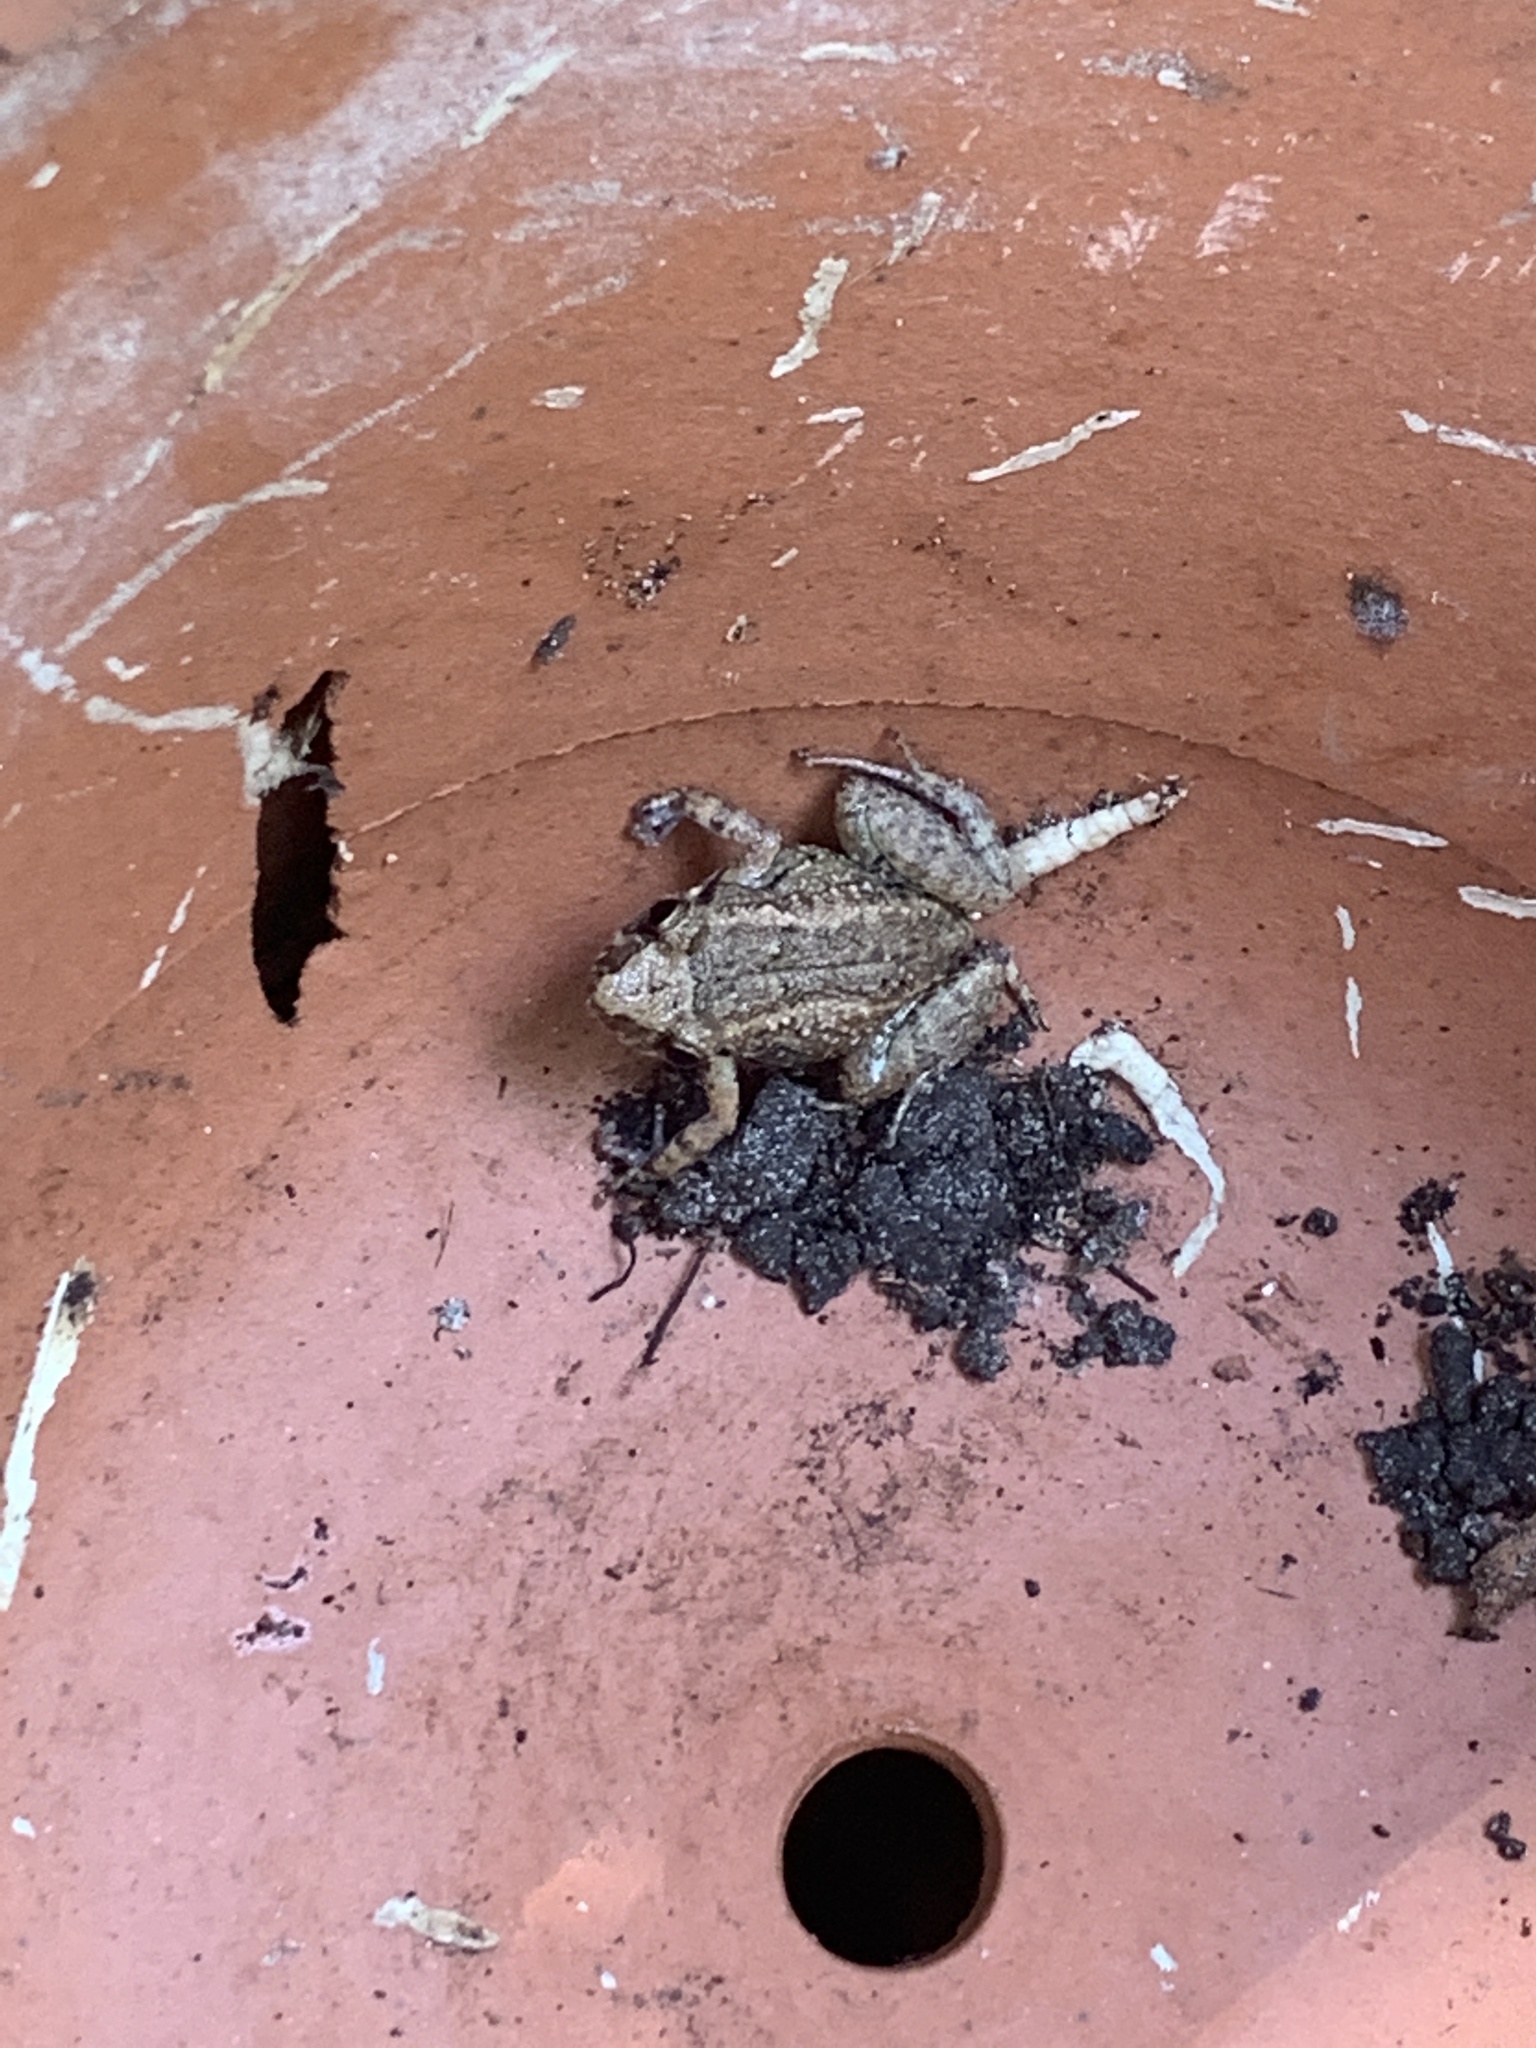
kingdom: Animalia
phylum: Chordata
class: Amphibia
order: Anura
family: Eleutherodactylidae
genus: Eleutherodactylus
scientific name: Eleutherodactylus planirostris
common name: Greenhouse frog
